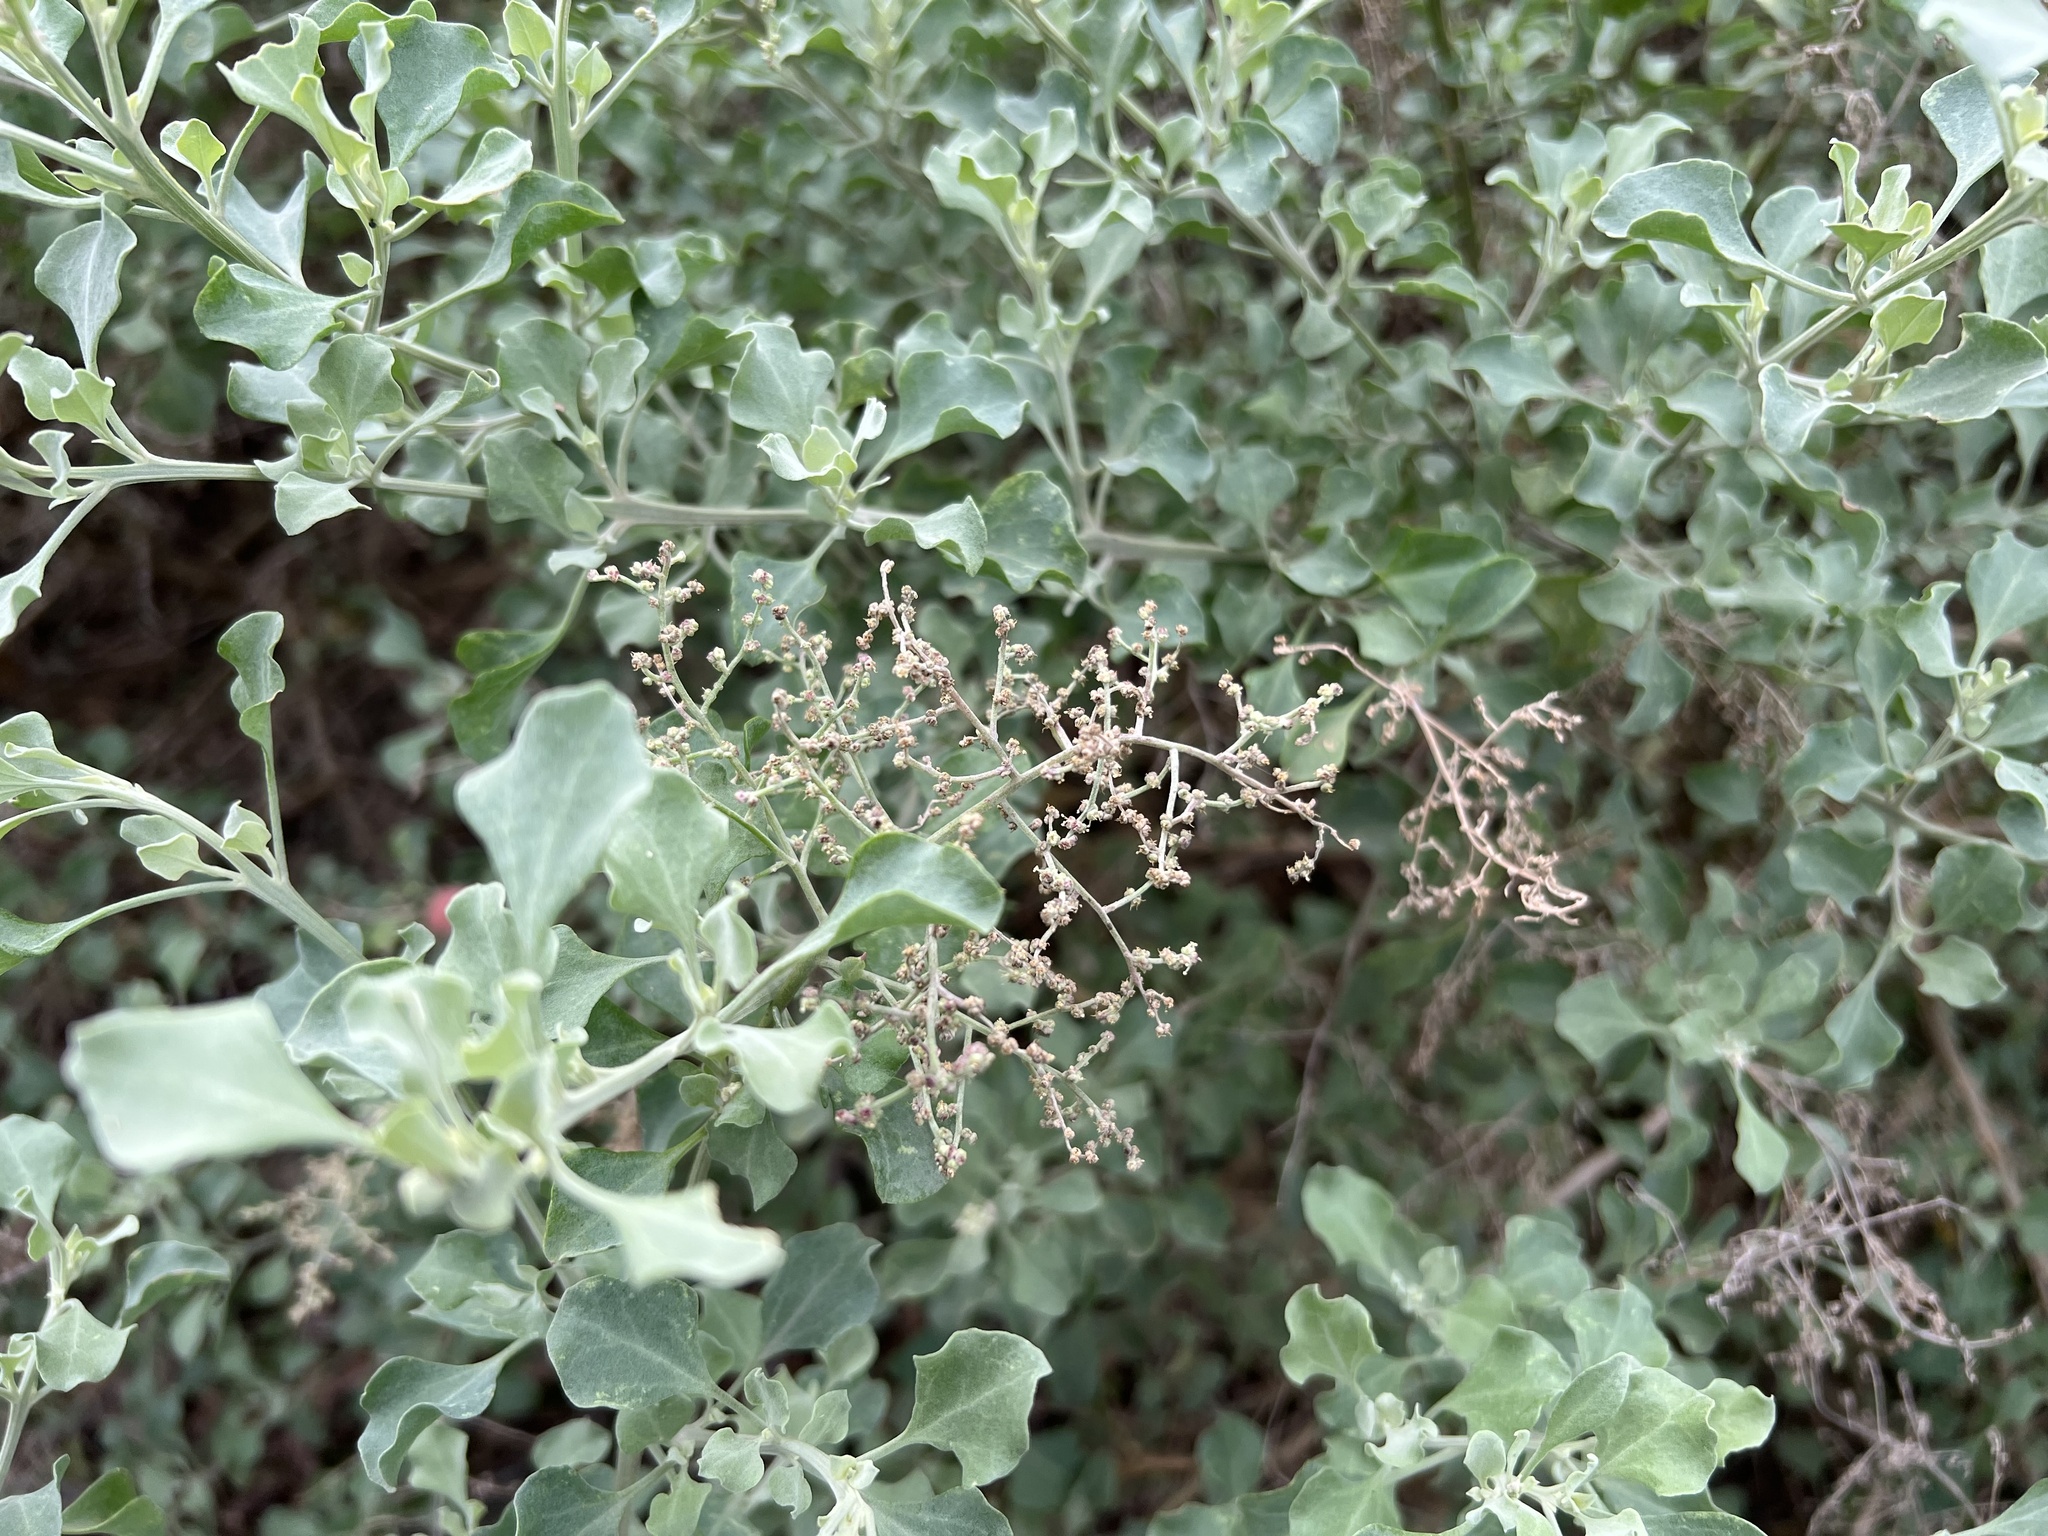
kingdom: Plantae
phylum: Tracheophyta
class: Magnoliopsida
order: Caryophyllales
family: Amaranthaceae
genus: Chenopodium
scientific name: Chenopodium parabolicum
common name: Old-man-saltbush
